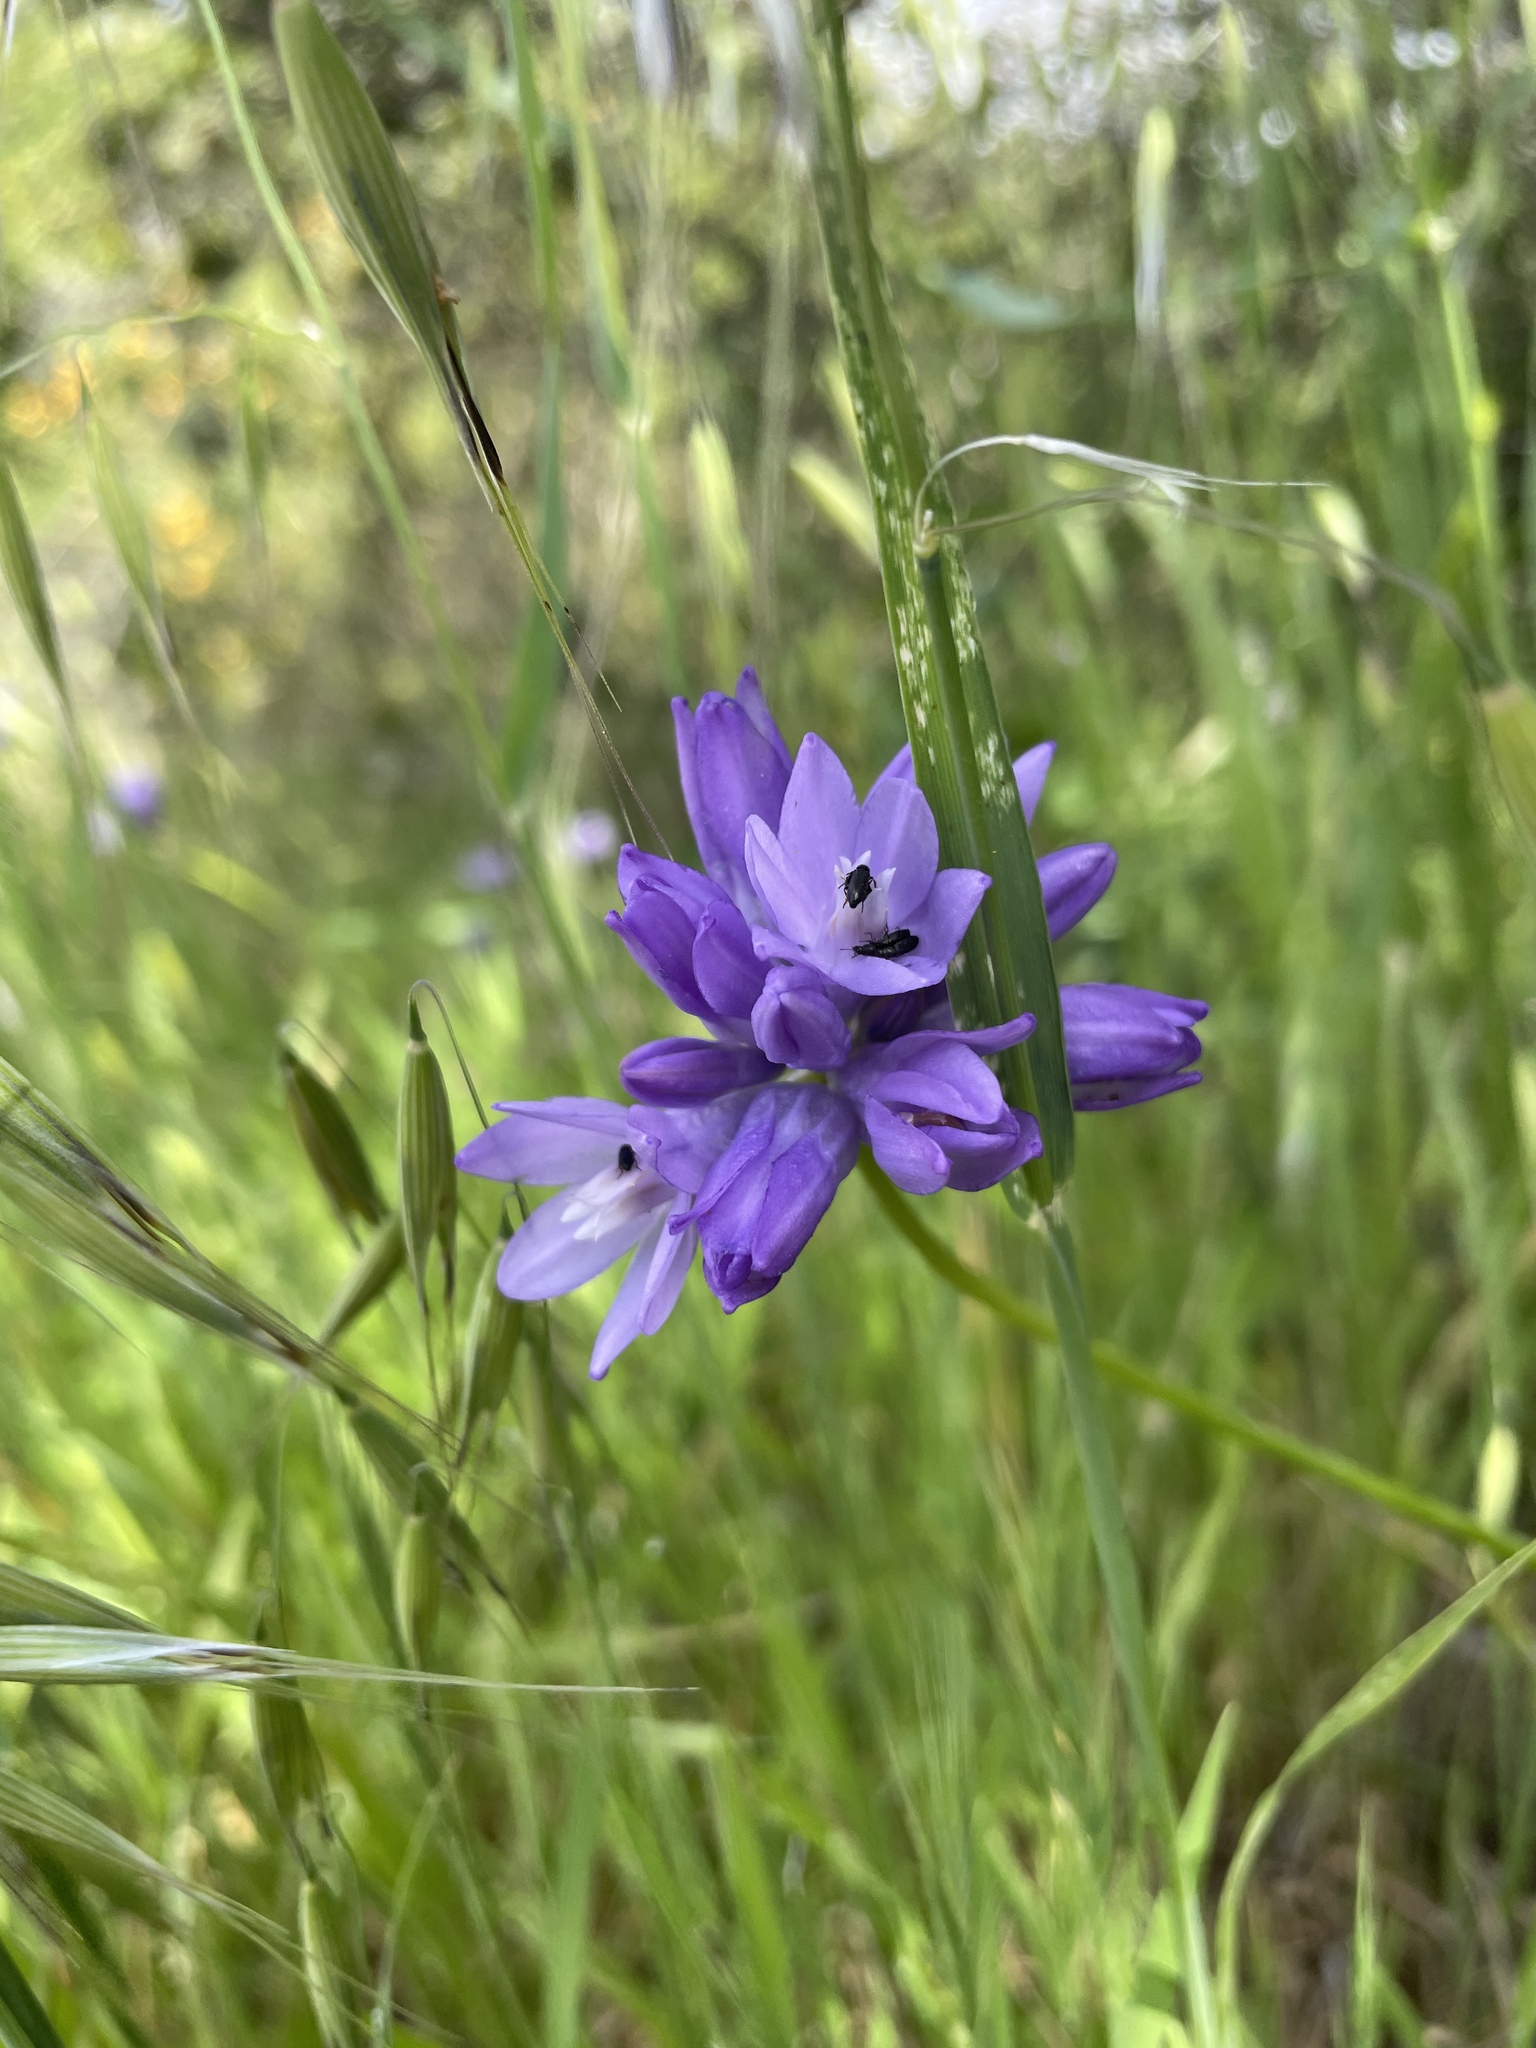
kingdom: Plantae
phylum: Tracheophyta
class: Liliopsida
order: Asparagales
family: Asparagaceae
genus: Dipterostemon
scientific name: Dipterostemon capitatus
